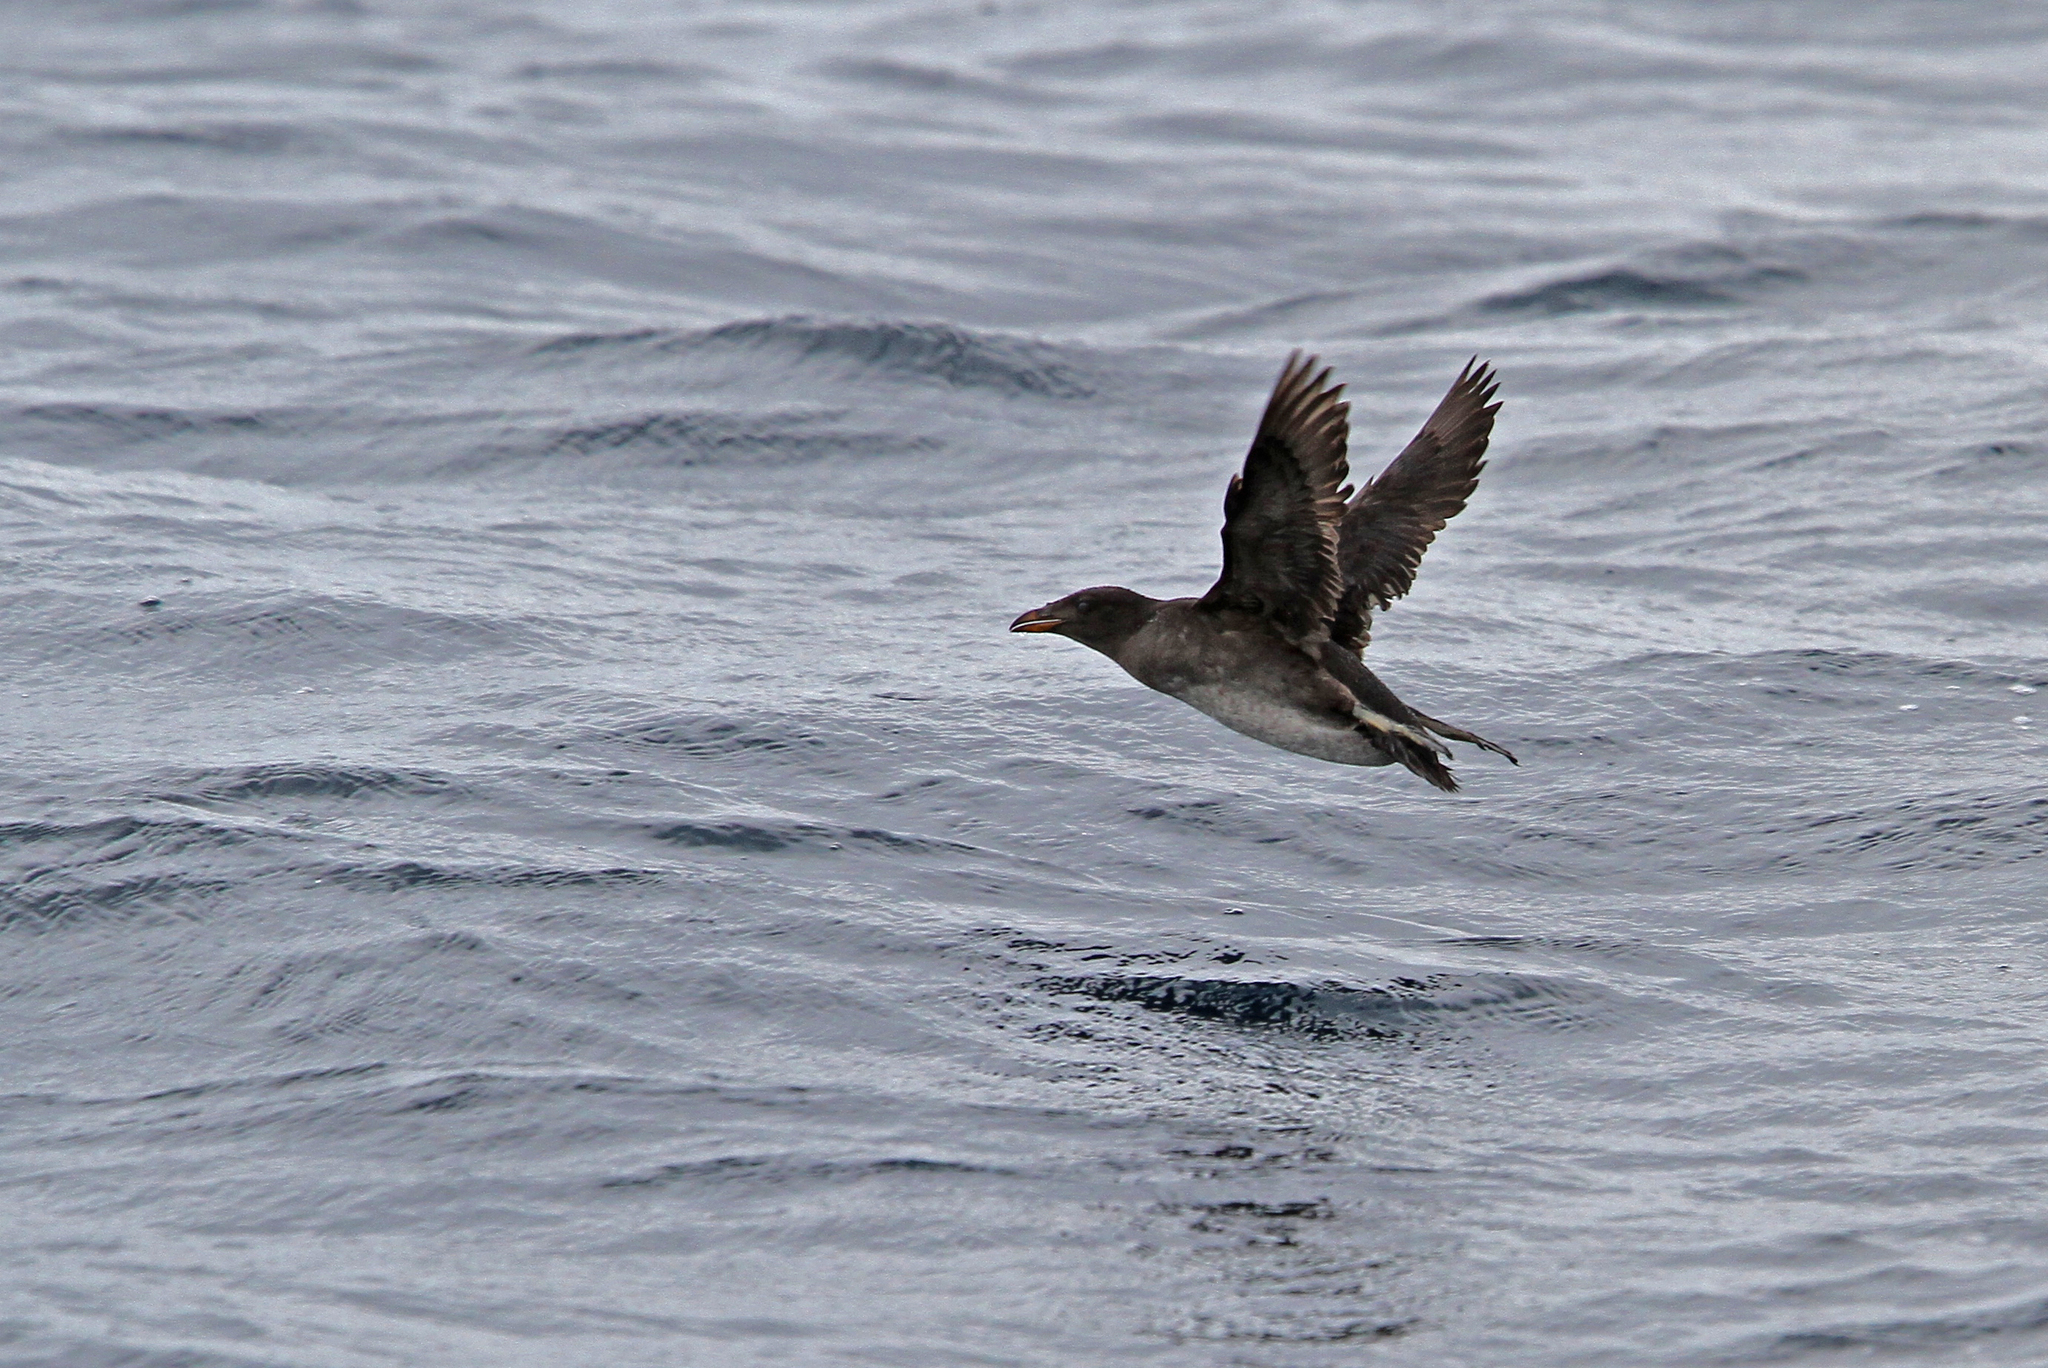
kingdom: Animalia
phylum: Chordata
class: Aves
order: Charadriiformes
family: Alcidae
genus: Cerorhinca
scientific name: Cerorhinca monocerata
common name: Rhinoceros auklet
